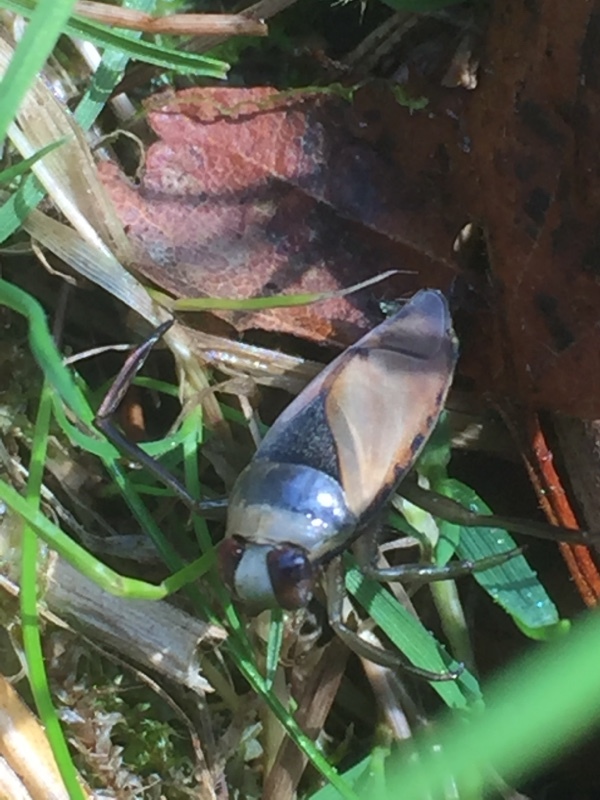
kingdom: Animalia
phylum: Arthropoda
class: Insecta
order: Hemiptera
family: Notonectidae
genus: Notonecta
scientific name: Notonecta glauca
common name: Common water-boatman
